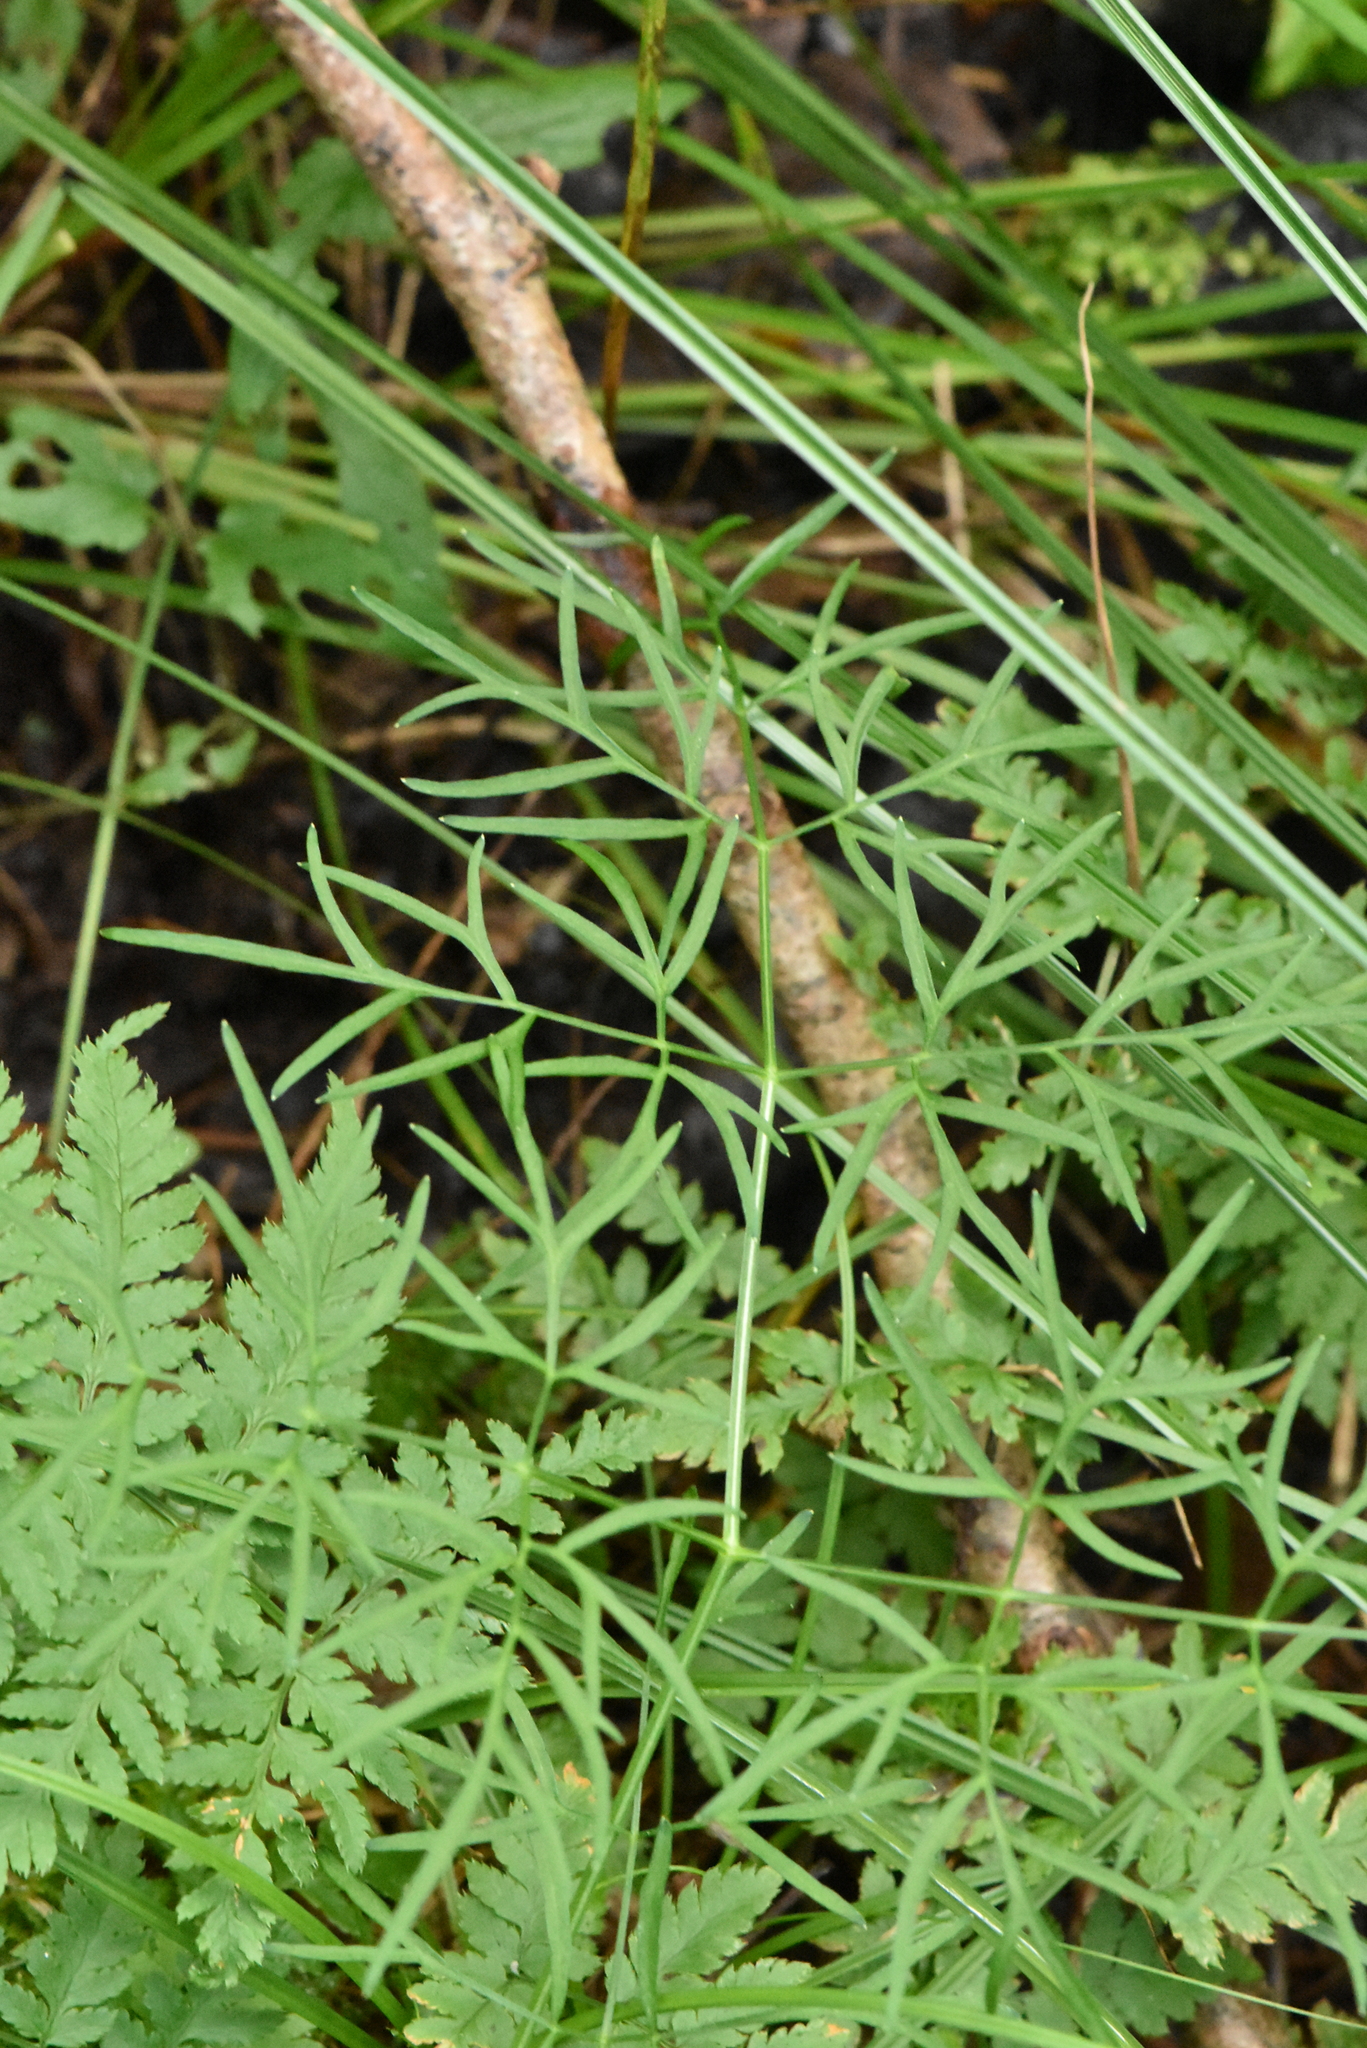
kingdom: Plantae
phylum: Tracheophyta
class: Magnoliopsida
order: Apiales
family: Apiaceae
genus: Kadenia
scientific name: Kadenia dubia
